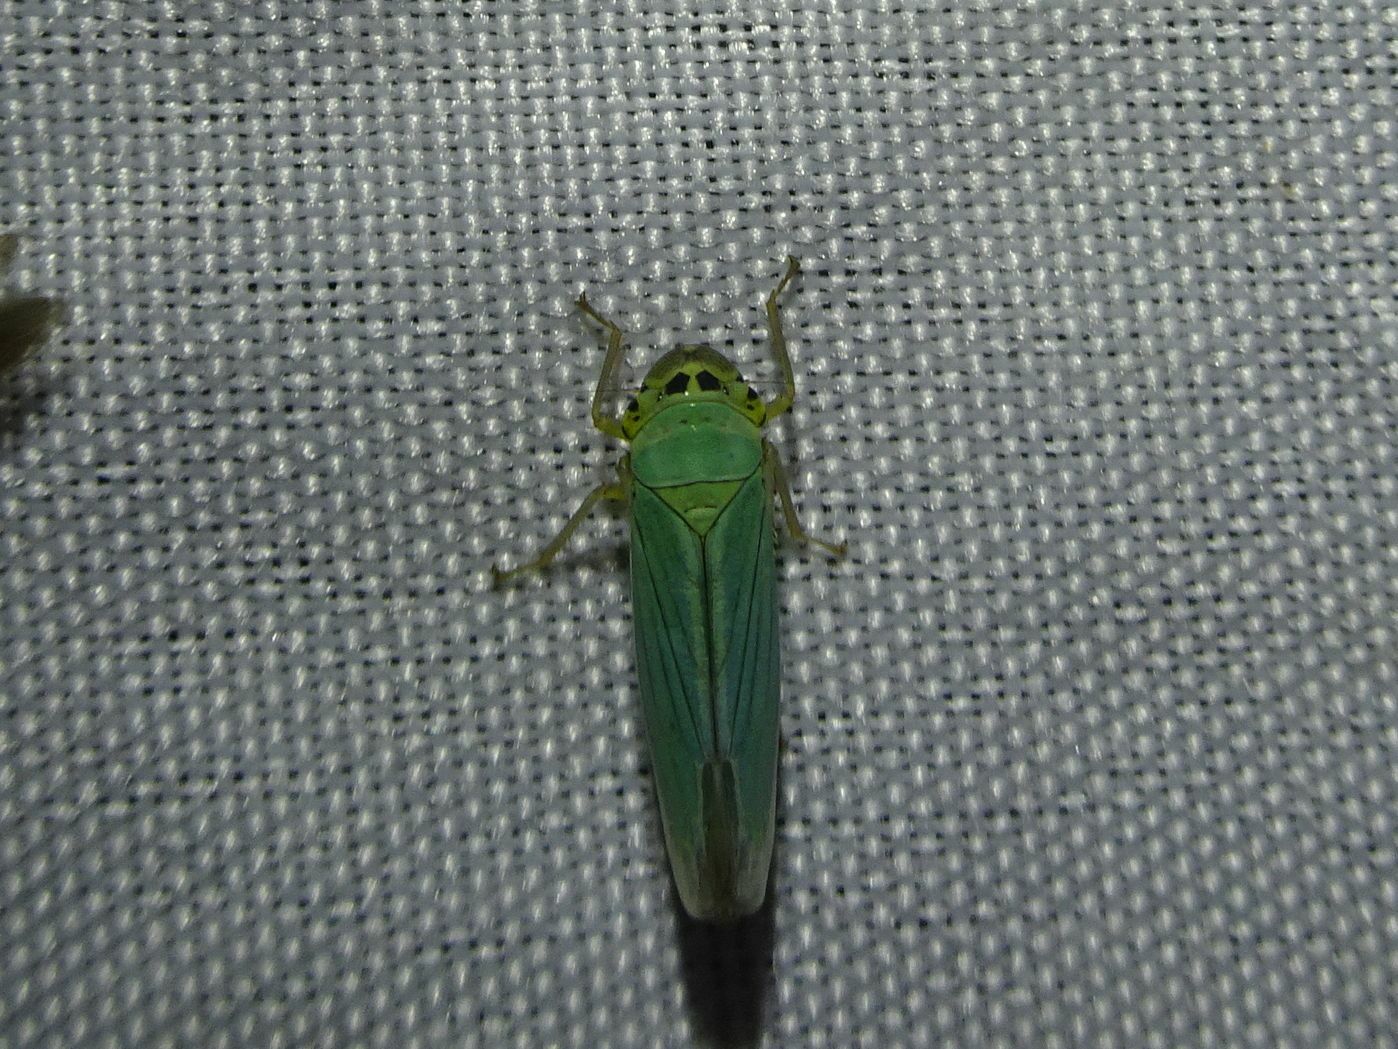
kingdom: Animalia
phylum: Arthropoda
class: Insecta
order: Hemiptera
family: Cicadellidae
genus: Cicadella
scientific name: Cicadella viridis
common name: Leafhopper
